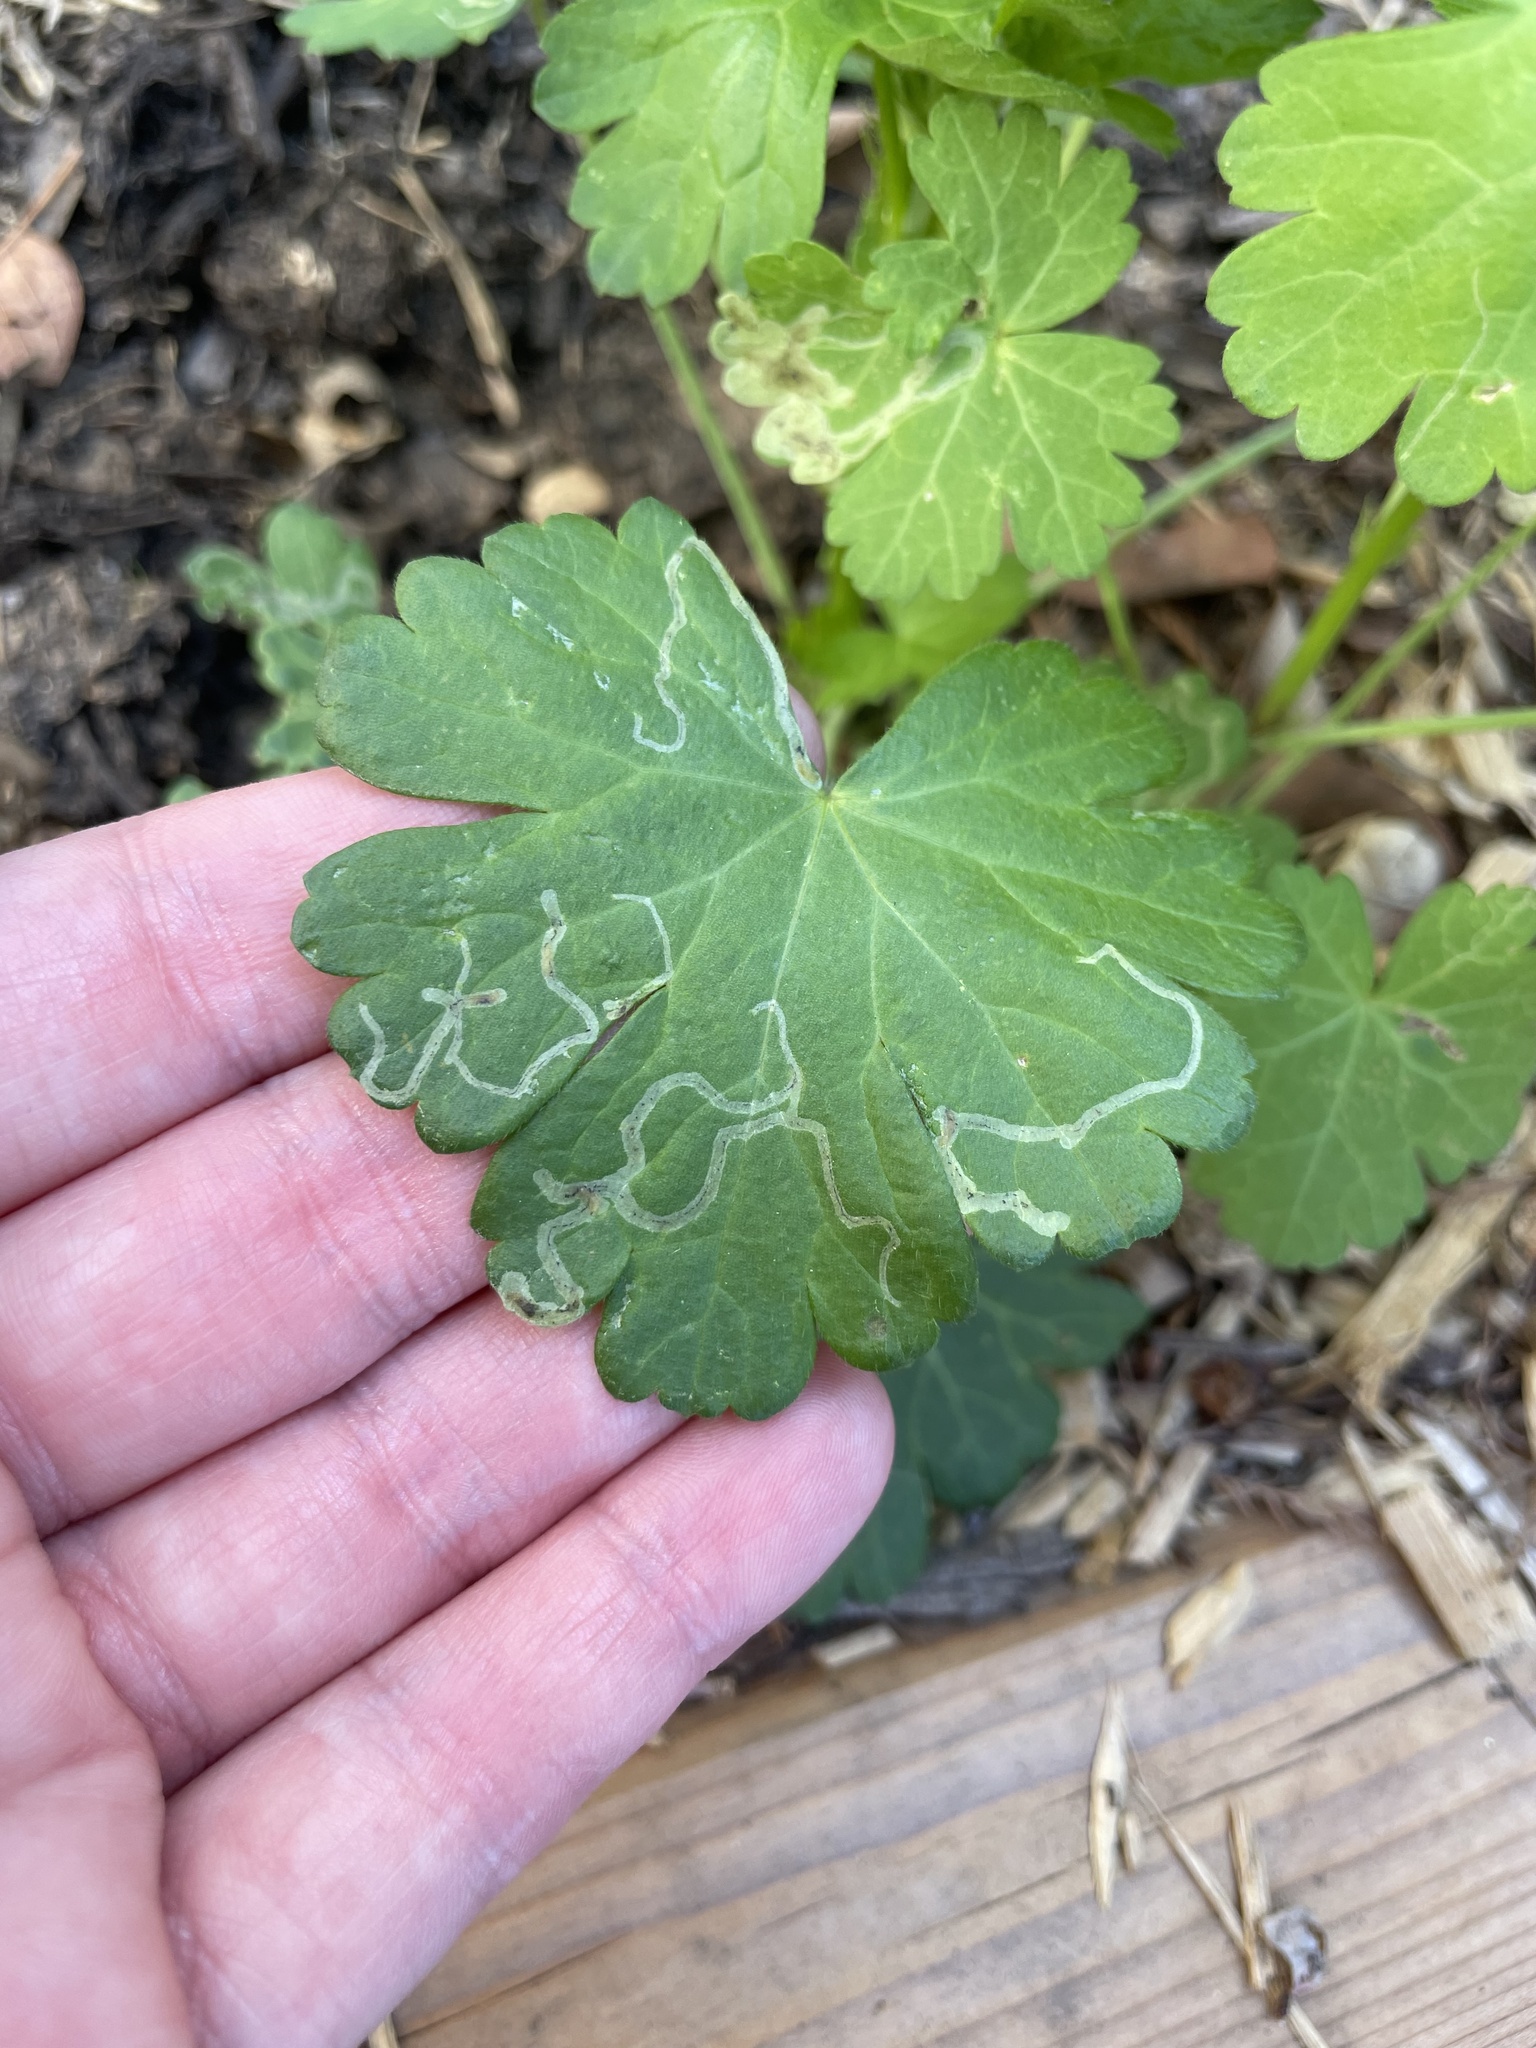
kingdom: Animalia
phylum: Arthropoda
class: Insecta
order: Diptera
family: Agromyzidae
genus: Calycomyza
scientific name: Calycomyza malvae
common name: Mallow leaf miner
